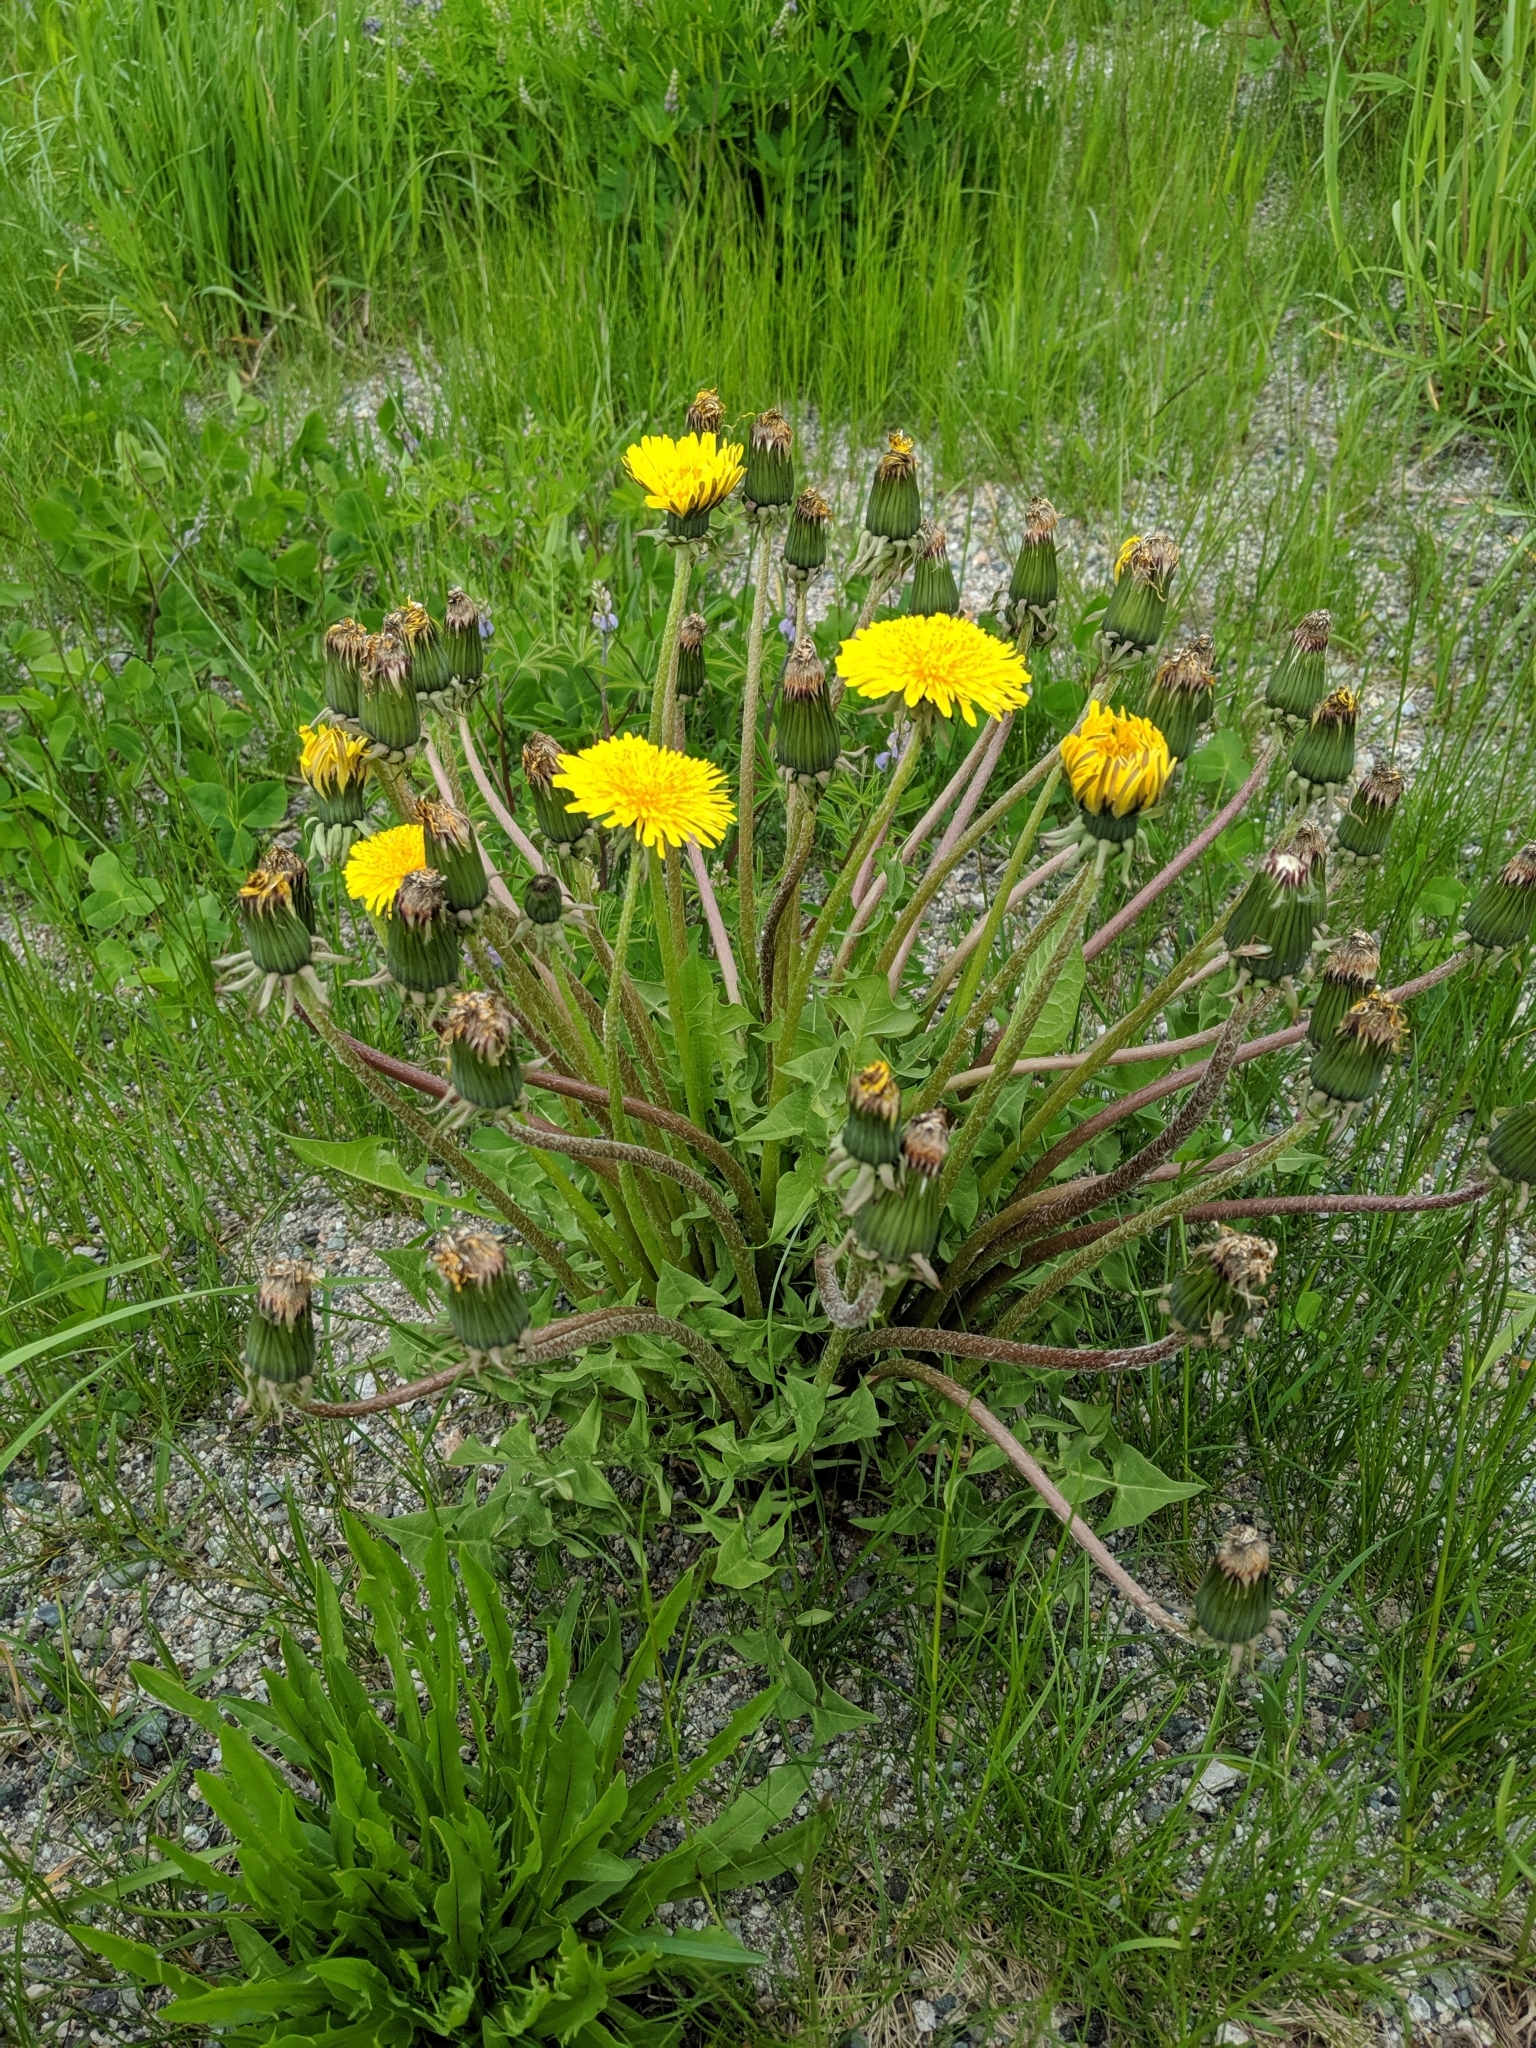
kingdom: Plantae
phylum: Tracheophyta
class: Magnoliopsida
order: Asterales
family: Asteraceae
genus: Taraxacum
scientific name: Taraxacum officinale
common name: Common dandelion
